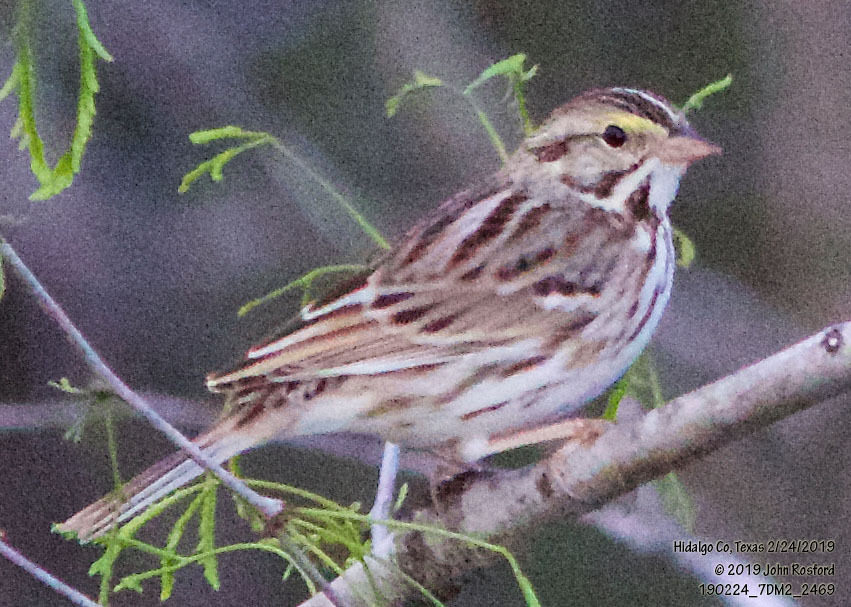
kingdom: Animalia
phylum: Chordata
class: Aves
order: Passeriformes
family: Passerellidae
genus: Passerculus
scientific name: Passerculus sandwichensis
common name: Savannah sparrow
